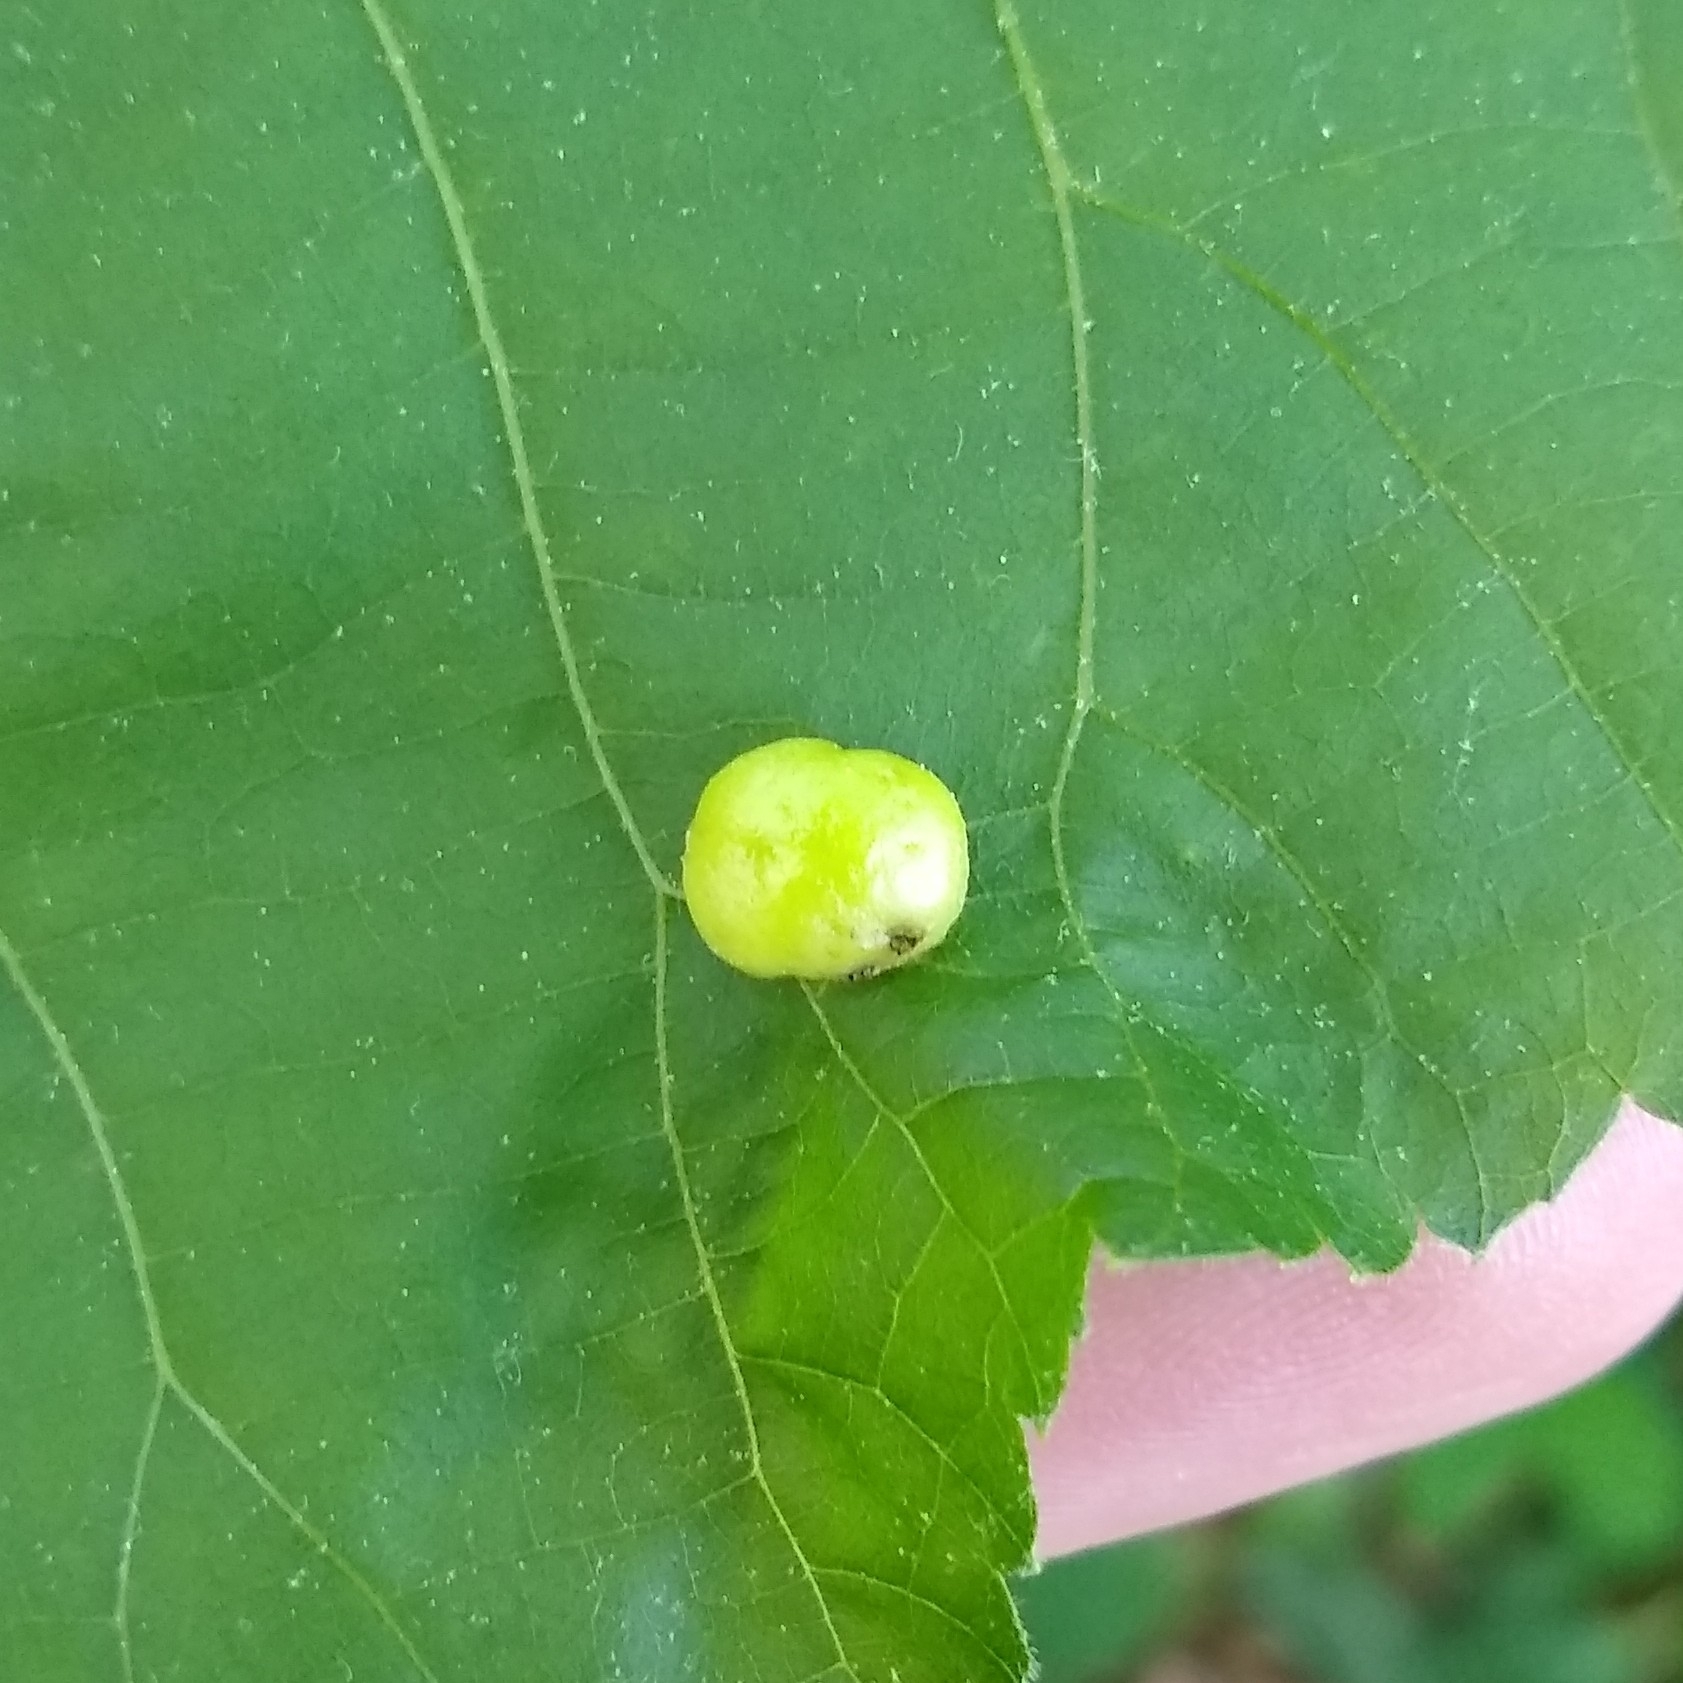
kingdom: Animalia
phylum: Arthropoda
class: Insecta
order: Hemiptera
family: Phylloxeridae
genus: Phylloxera
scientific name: Phylloxera caryae-globuli
